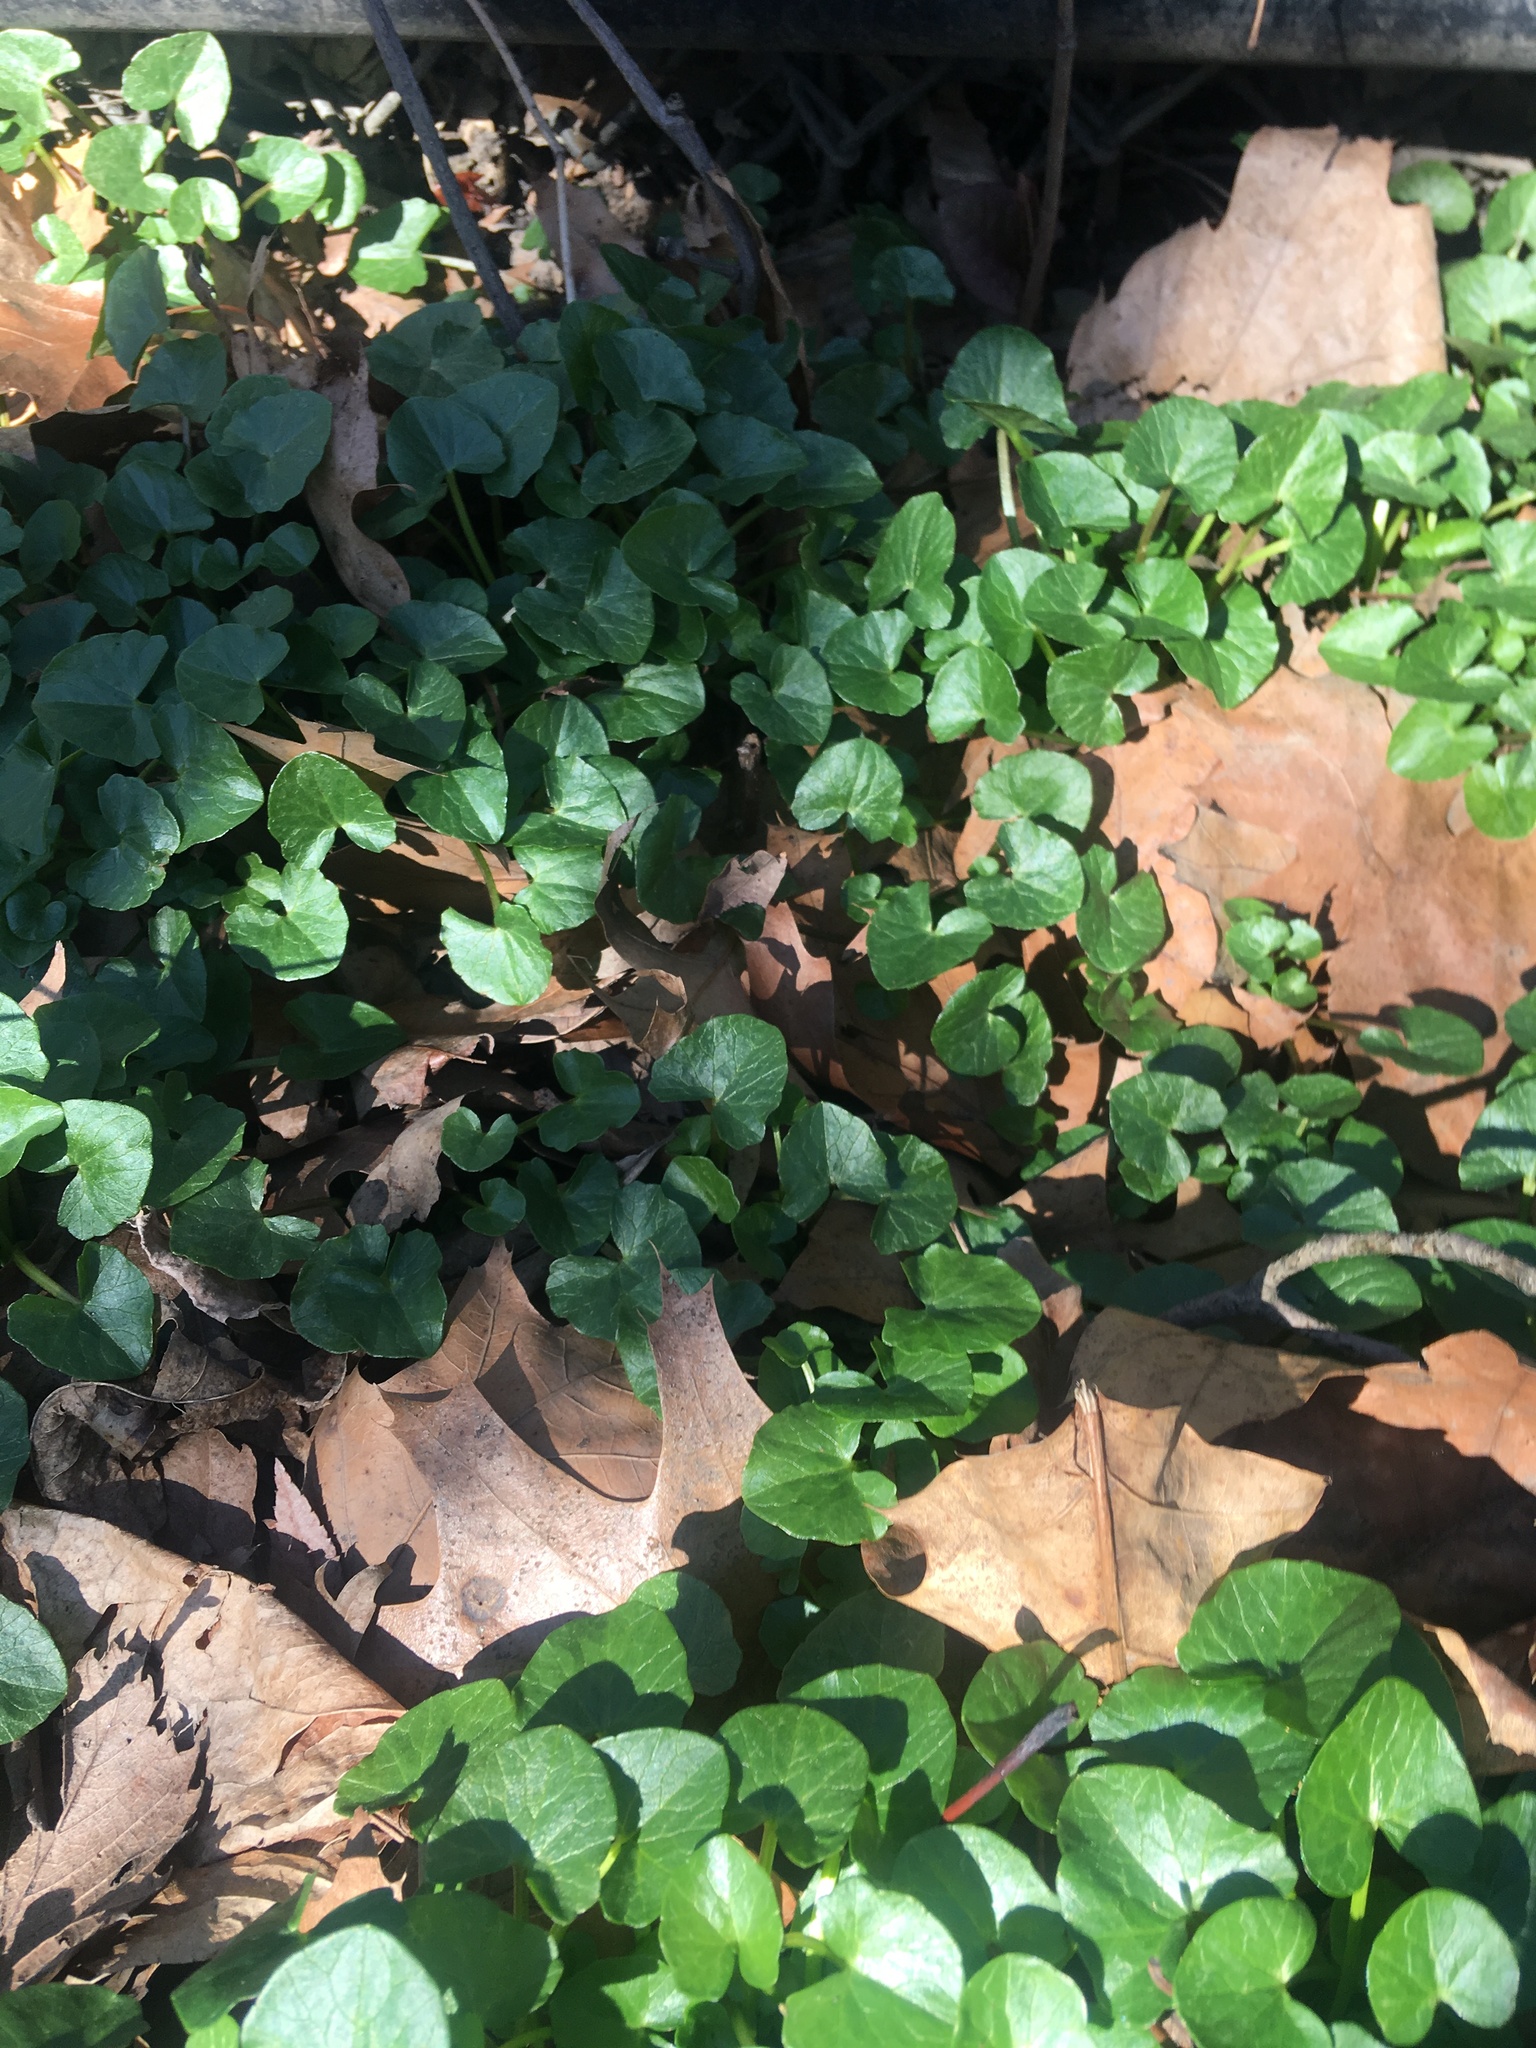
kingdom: Plantae
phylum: Tracheophyta
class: Magnoliopsida
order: Ranunculales
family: Ranunculaceae
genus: Ficaria
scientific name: Ficaria verna
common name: Lesser celandine
